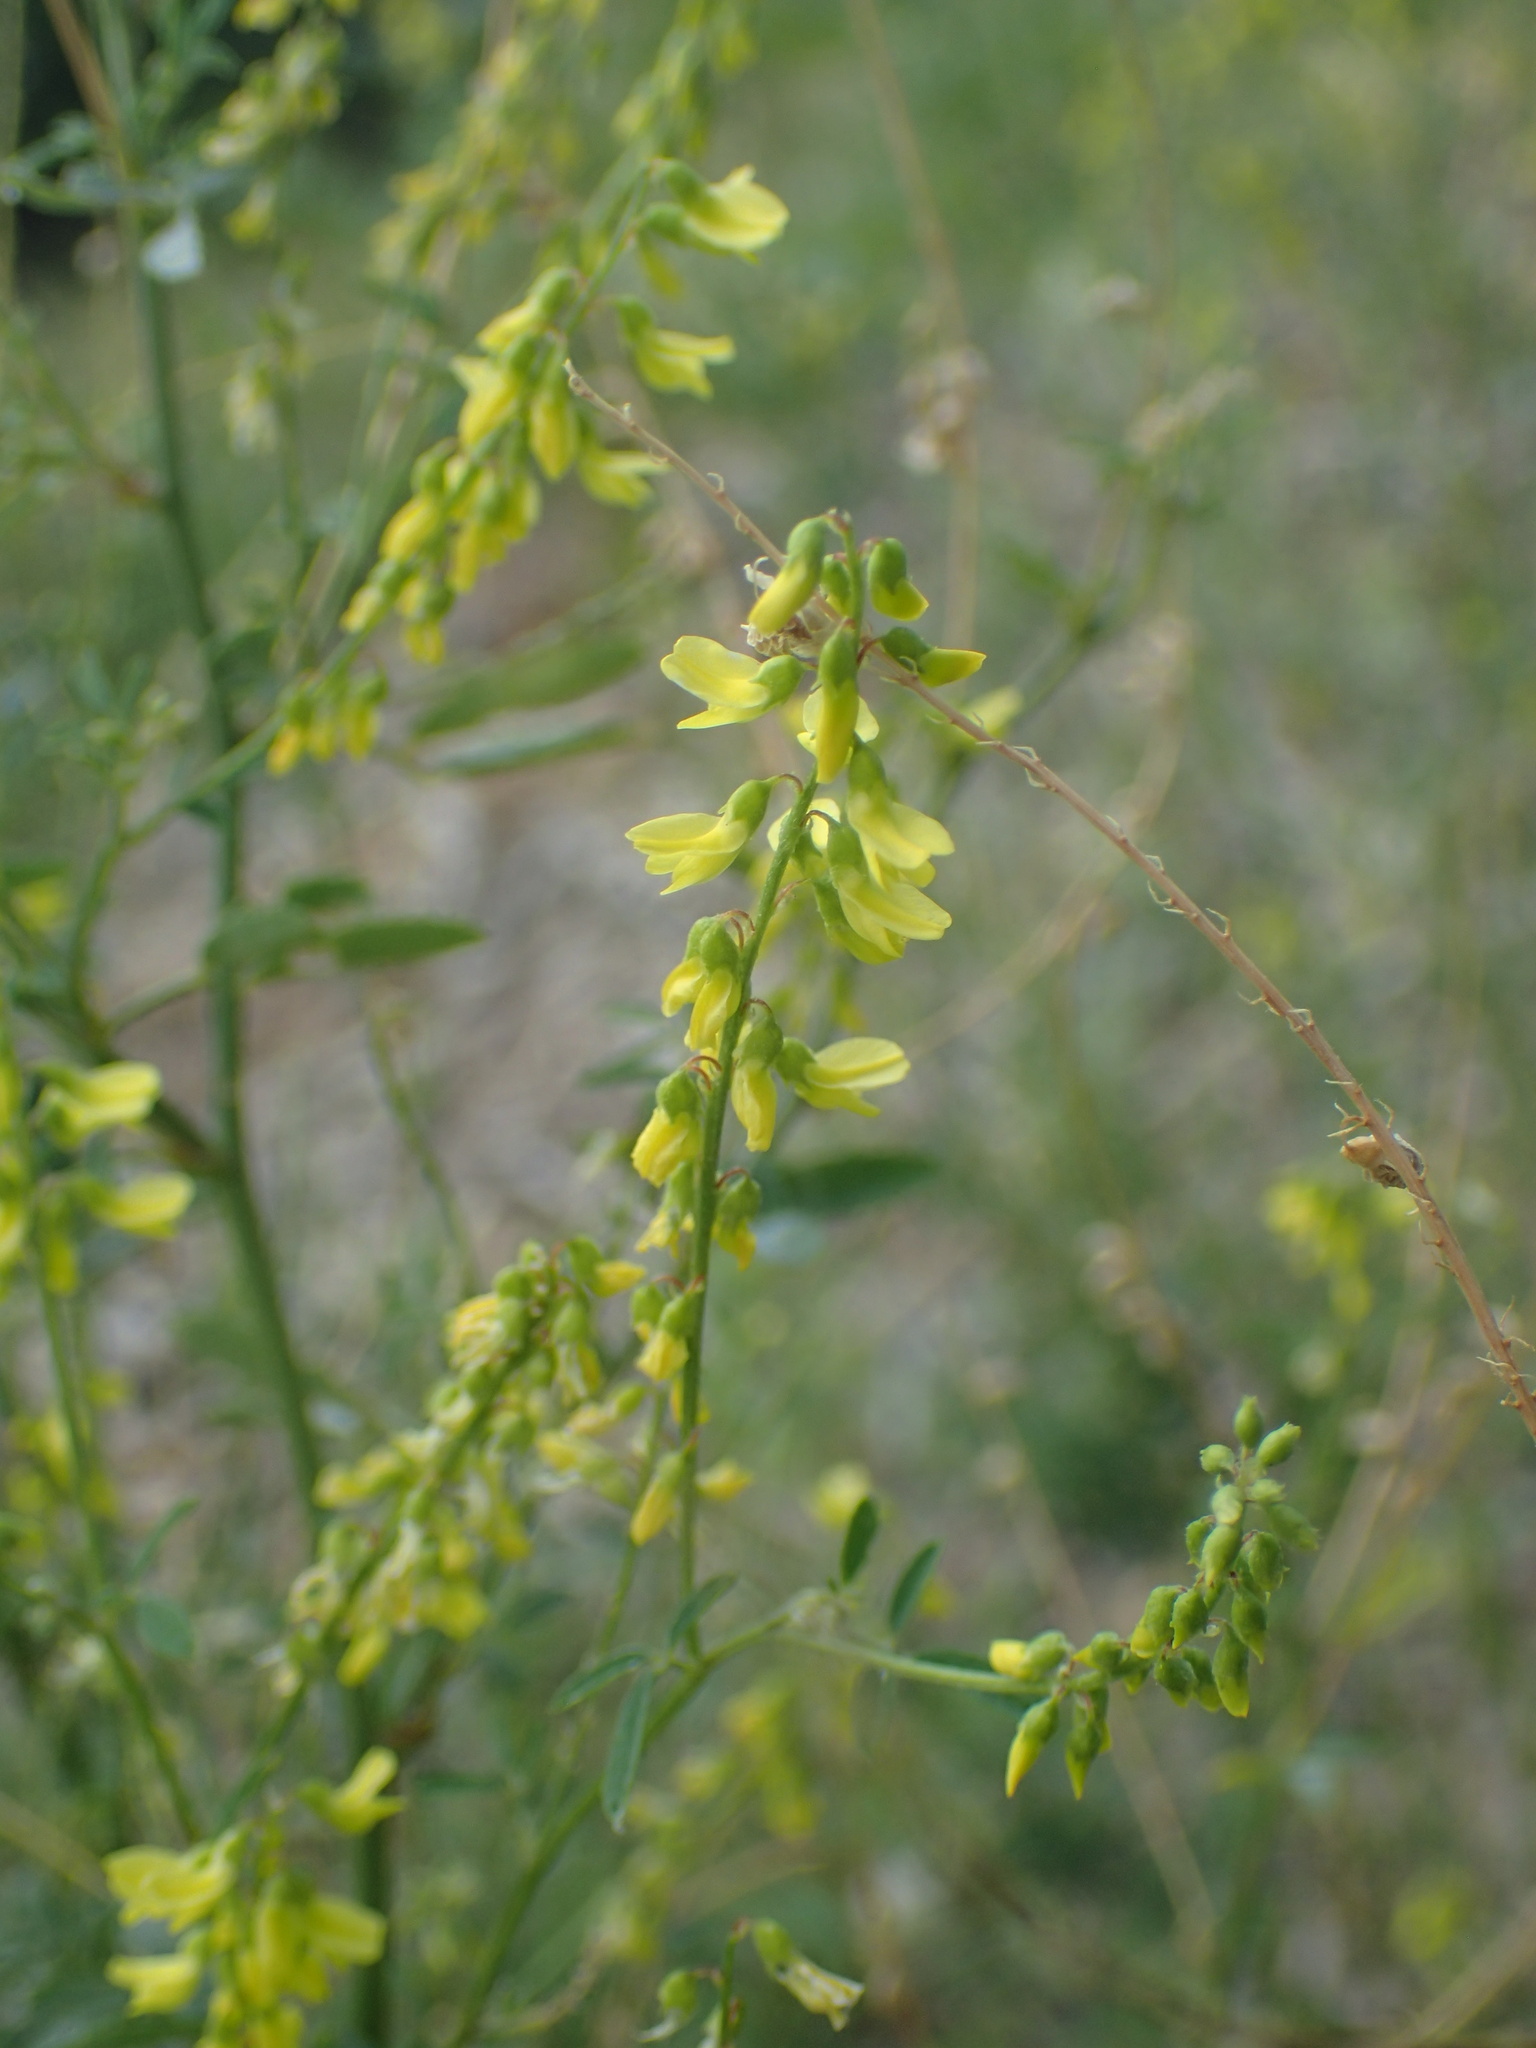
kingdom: Plantae
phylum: Tracheophyta
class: Magnoliopsida
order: Fabales
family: Fabaceae
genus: Melilotus
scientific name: Melilotus officinalis
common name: Sweetclover
